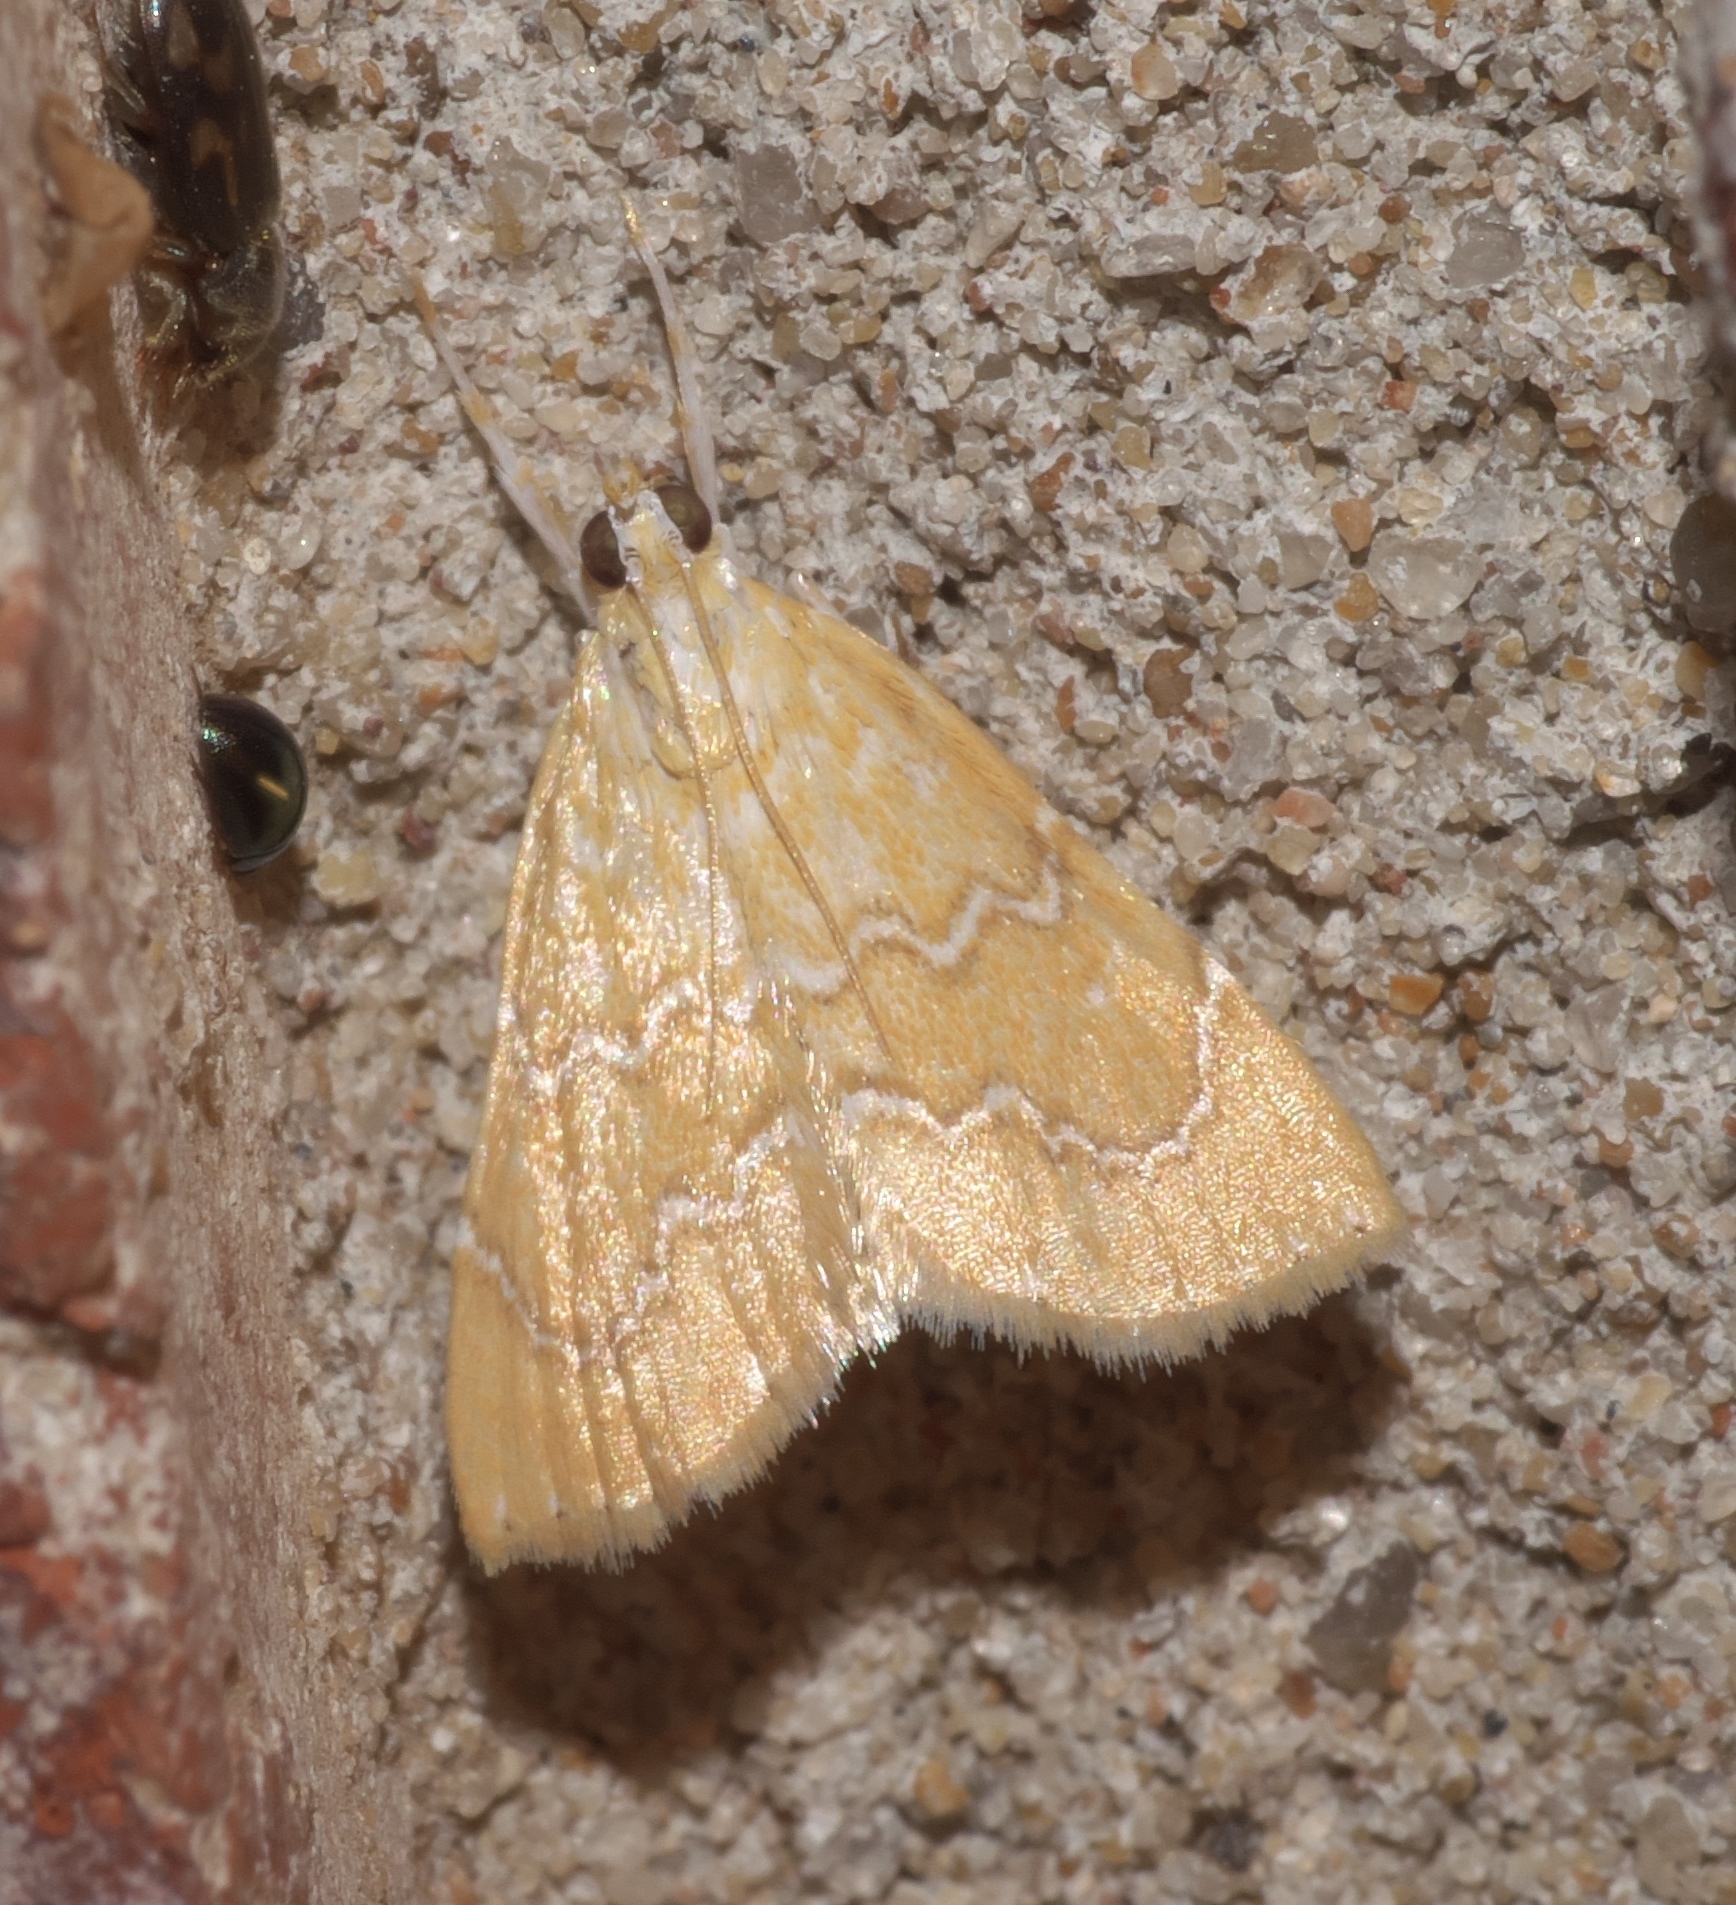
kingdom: Animalia
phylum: Arthropoda
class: Insecta
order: Lepidoptera
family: Crambidae
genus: Glaphyria
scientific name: Glaphyria sesquistrialis
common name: White-roped glaphyria
